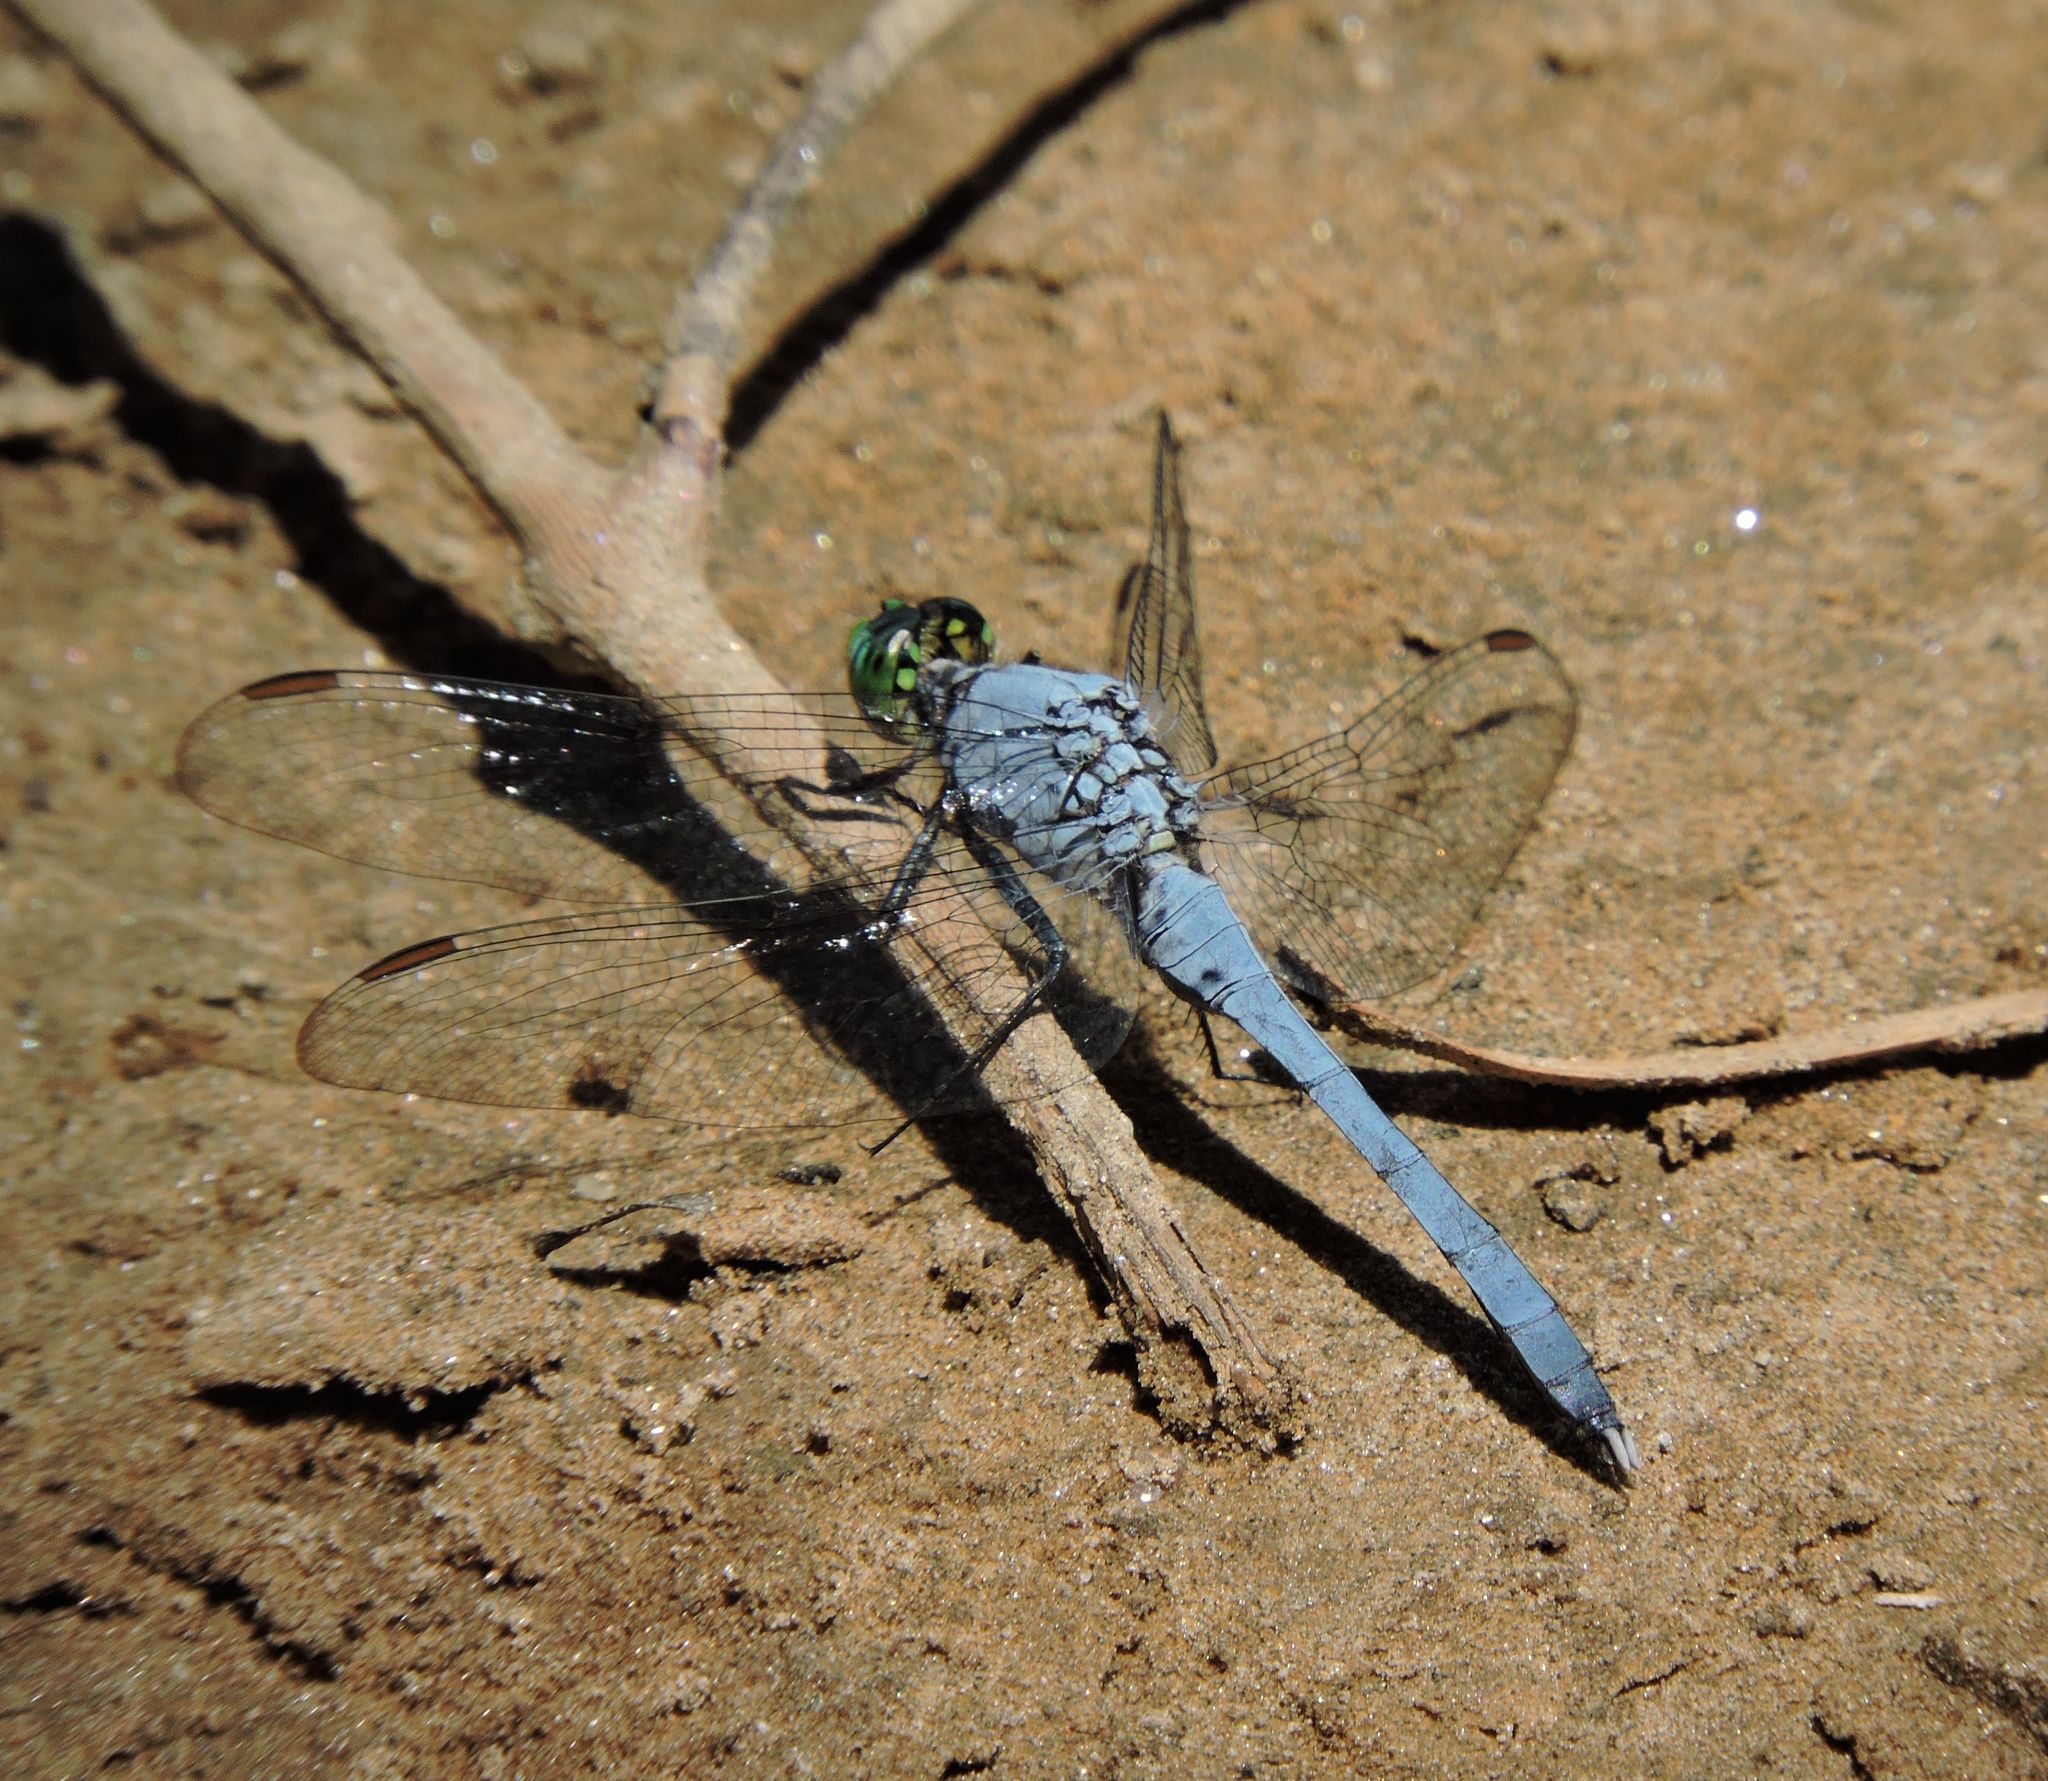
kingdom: Animalia
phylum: Arthropoda
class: Insecta
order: Odonata
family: Libellulidae
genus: Erythemis
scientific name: Erythemis simplicicollis
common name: Eastern pondhawk
